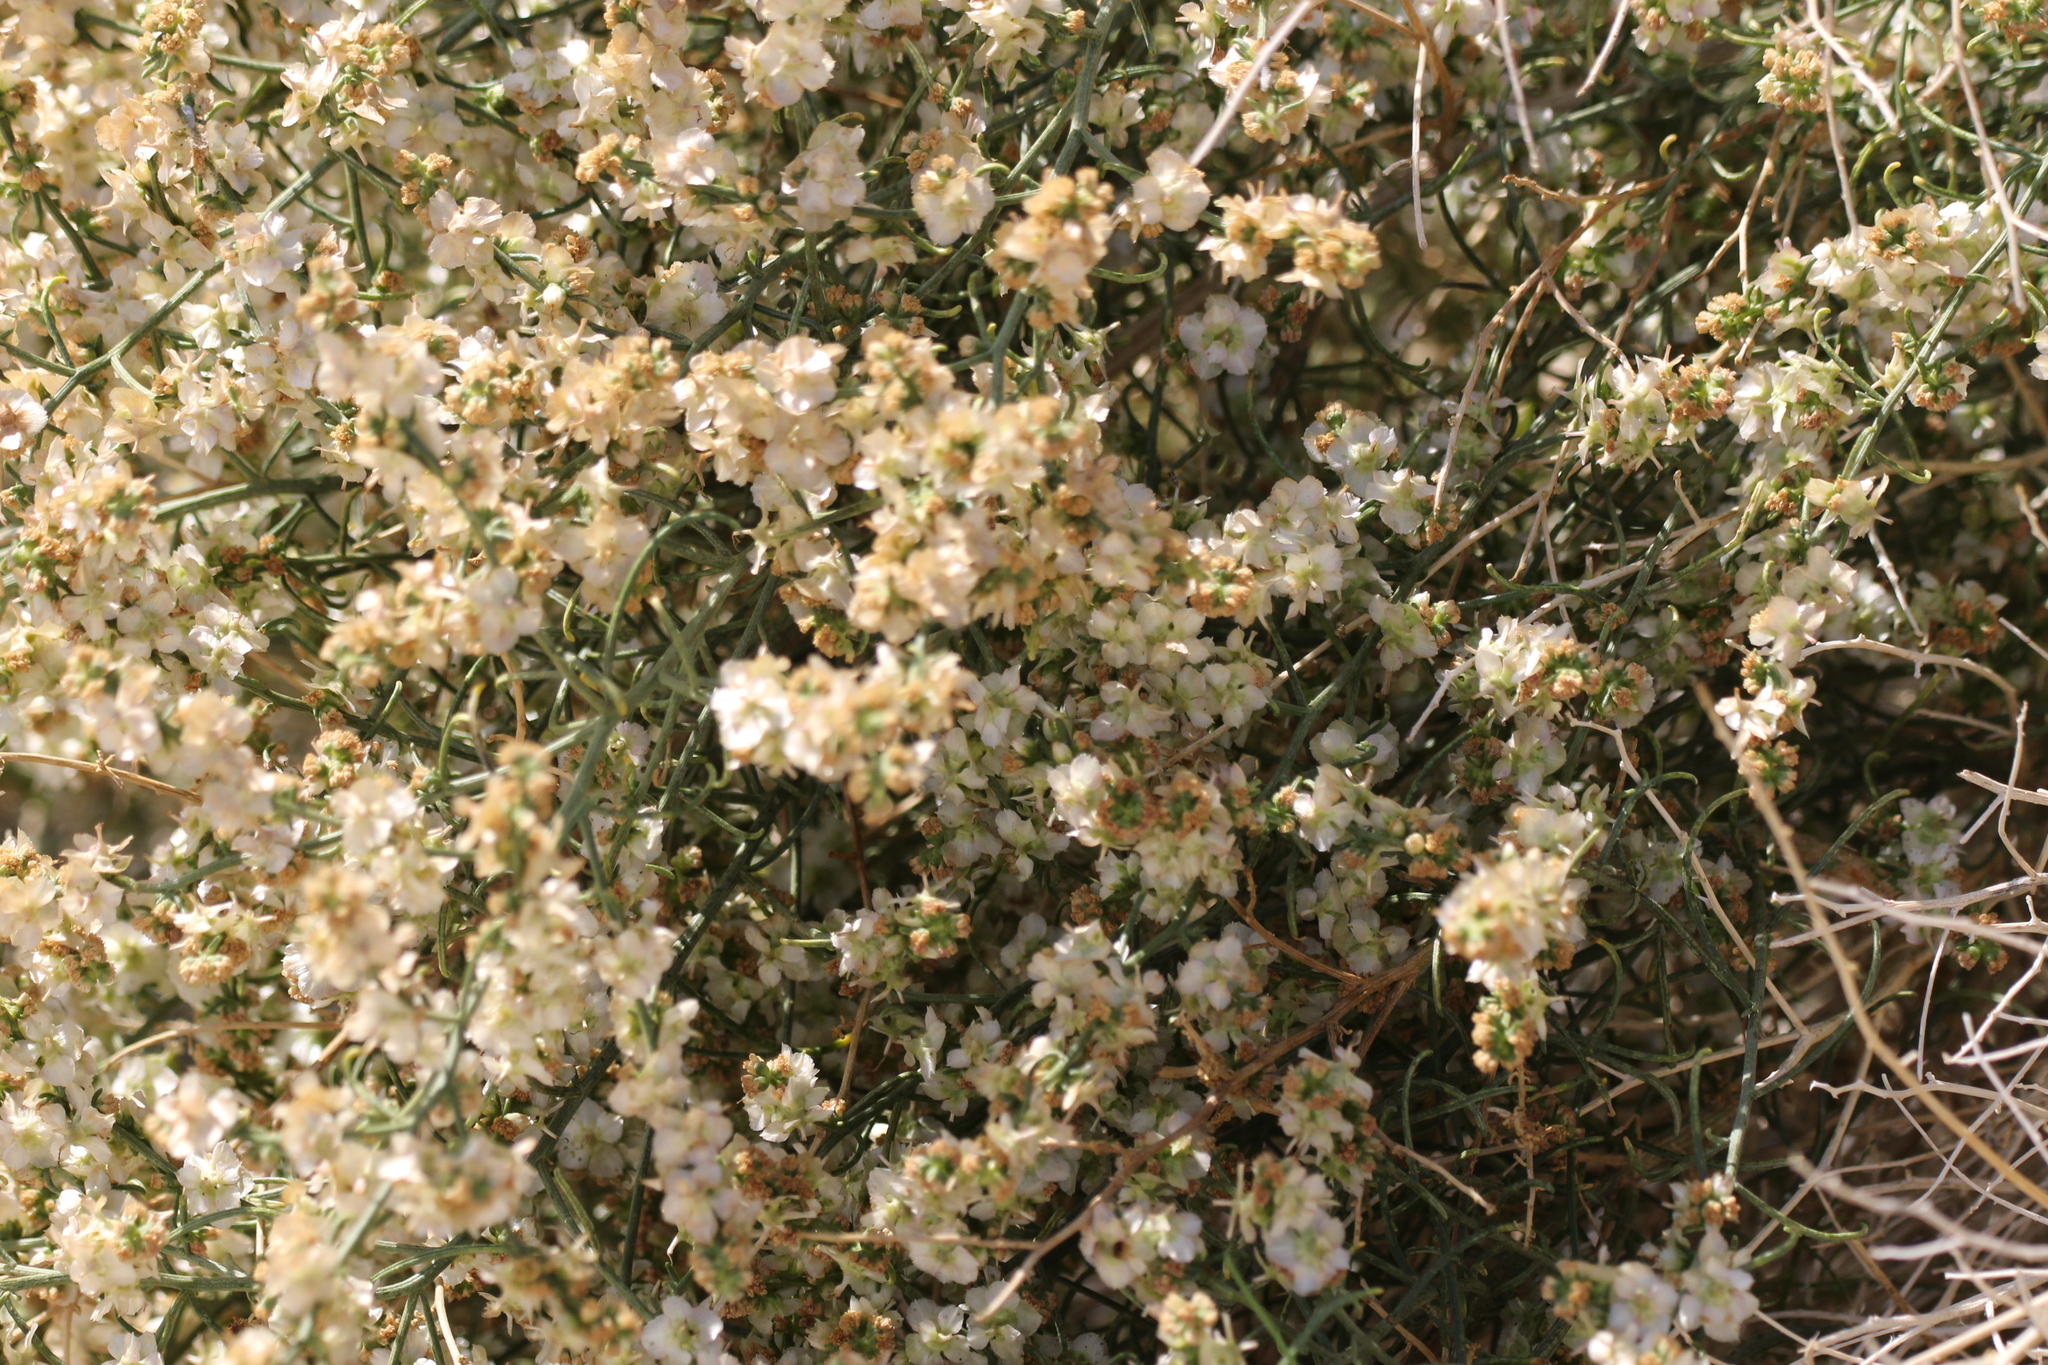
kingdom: Plantae
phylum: Tracheophyta
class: Magnoliopsida
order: Asterales
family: Asteraceae
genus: Ambrosia
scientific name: Ambrosia salsola
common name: Burrobrush
